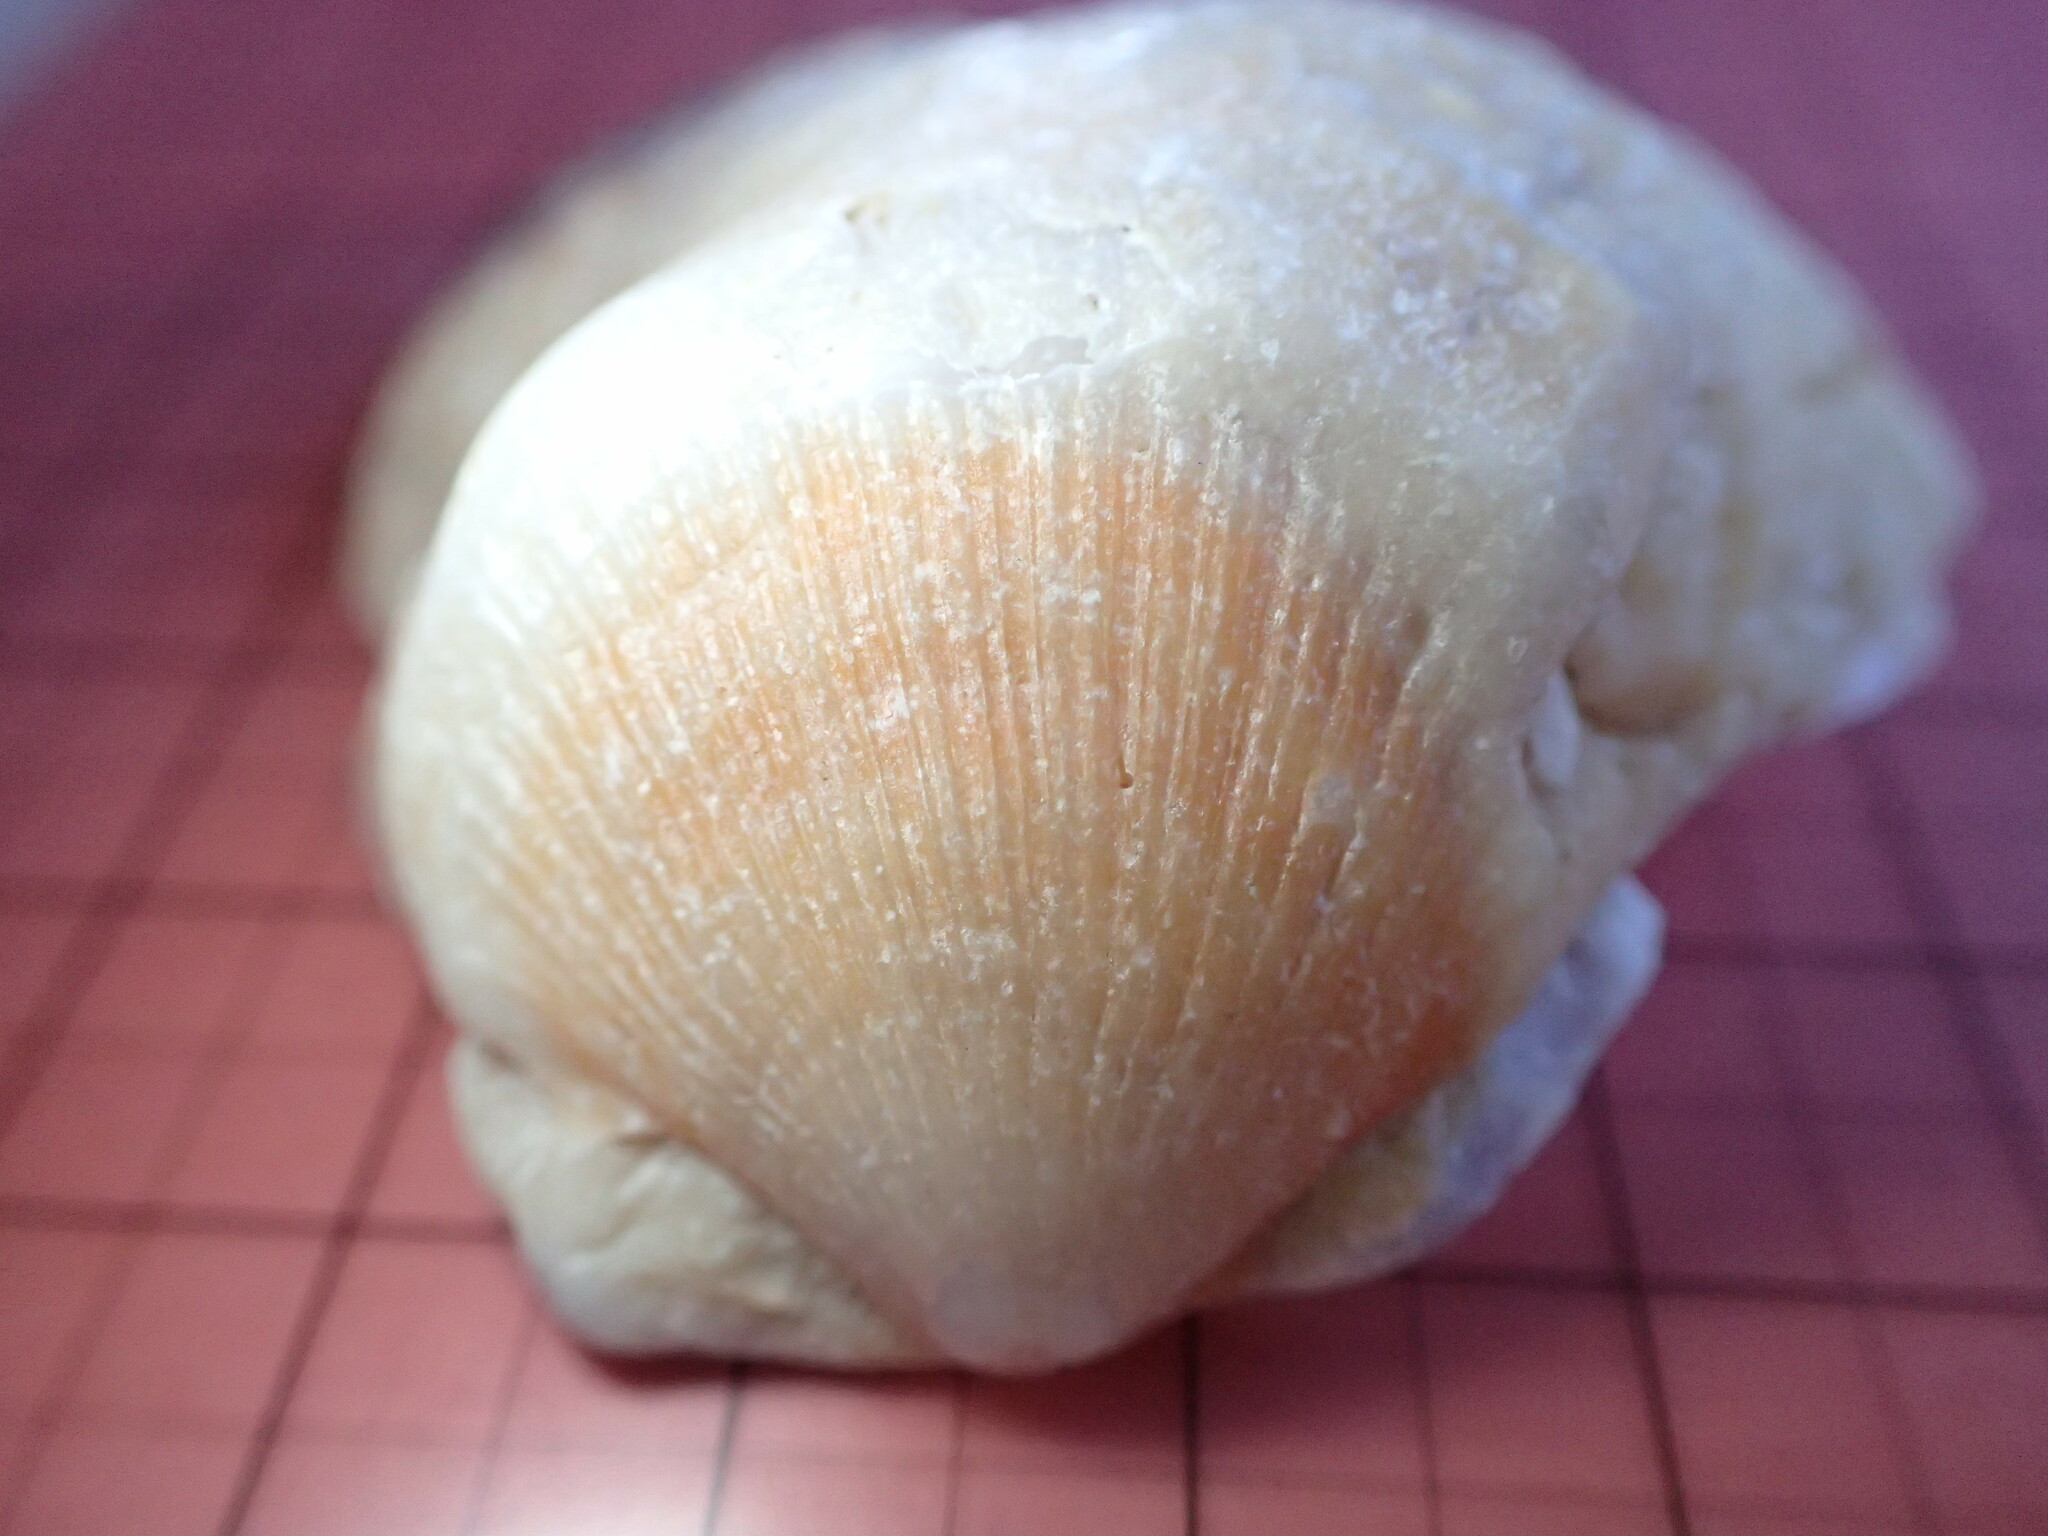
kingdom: Animalia
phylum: Mollusca
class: Bivalvia
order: Pectinida
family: Pectinidae
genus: Crassadoma
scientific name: Crassadoma gigantea
